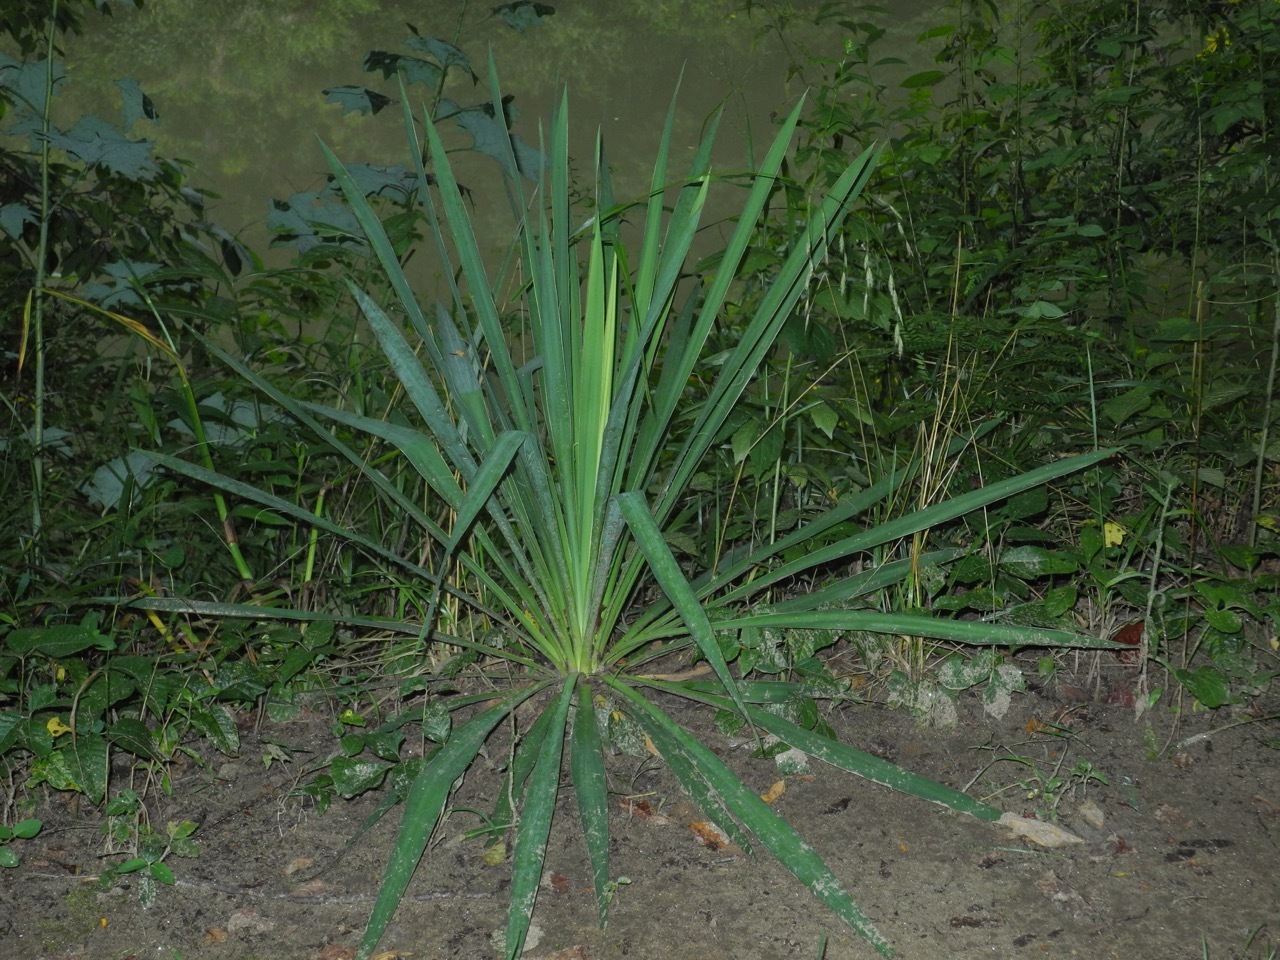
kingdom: Plantae
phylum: Tracheophyta
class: Liliopsida
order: Asparagales
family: Asparagaceae
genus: Yucca
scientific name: Yucca filamentosa
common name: Adam's-needle
